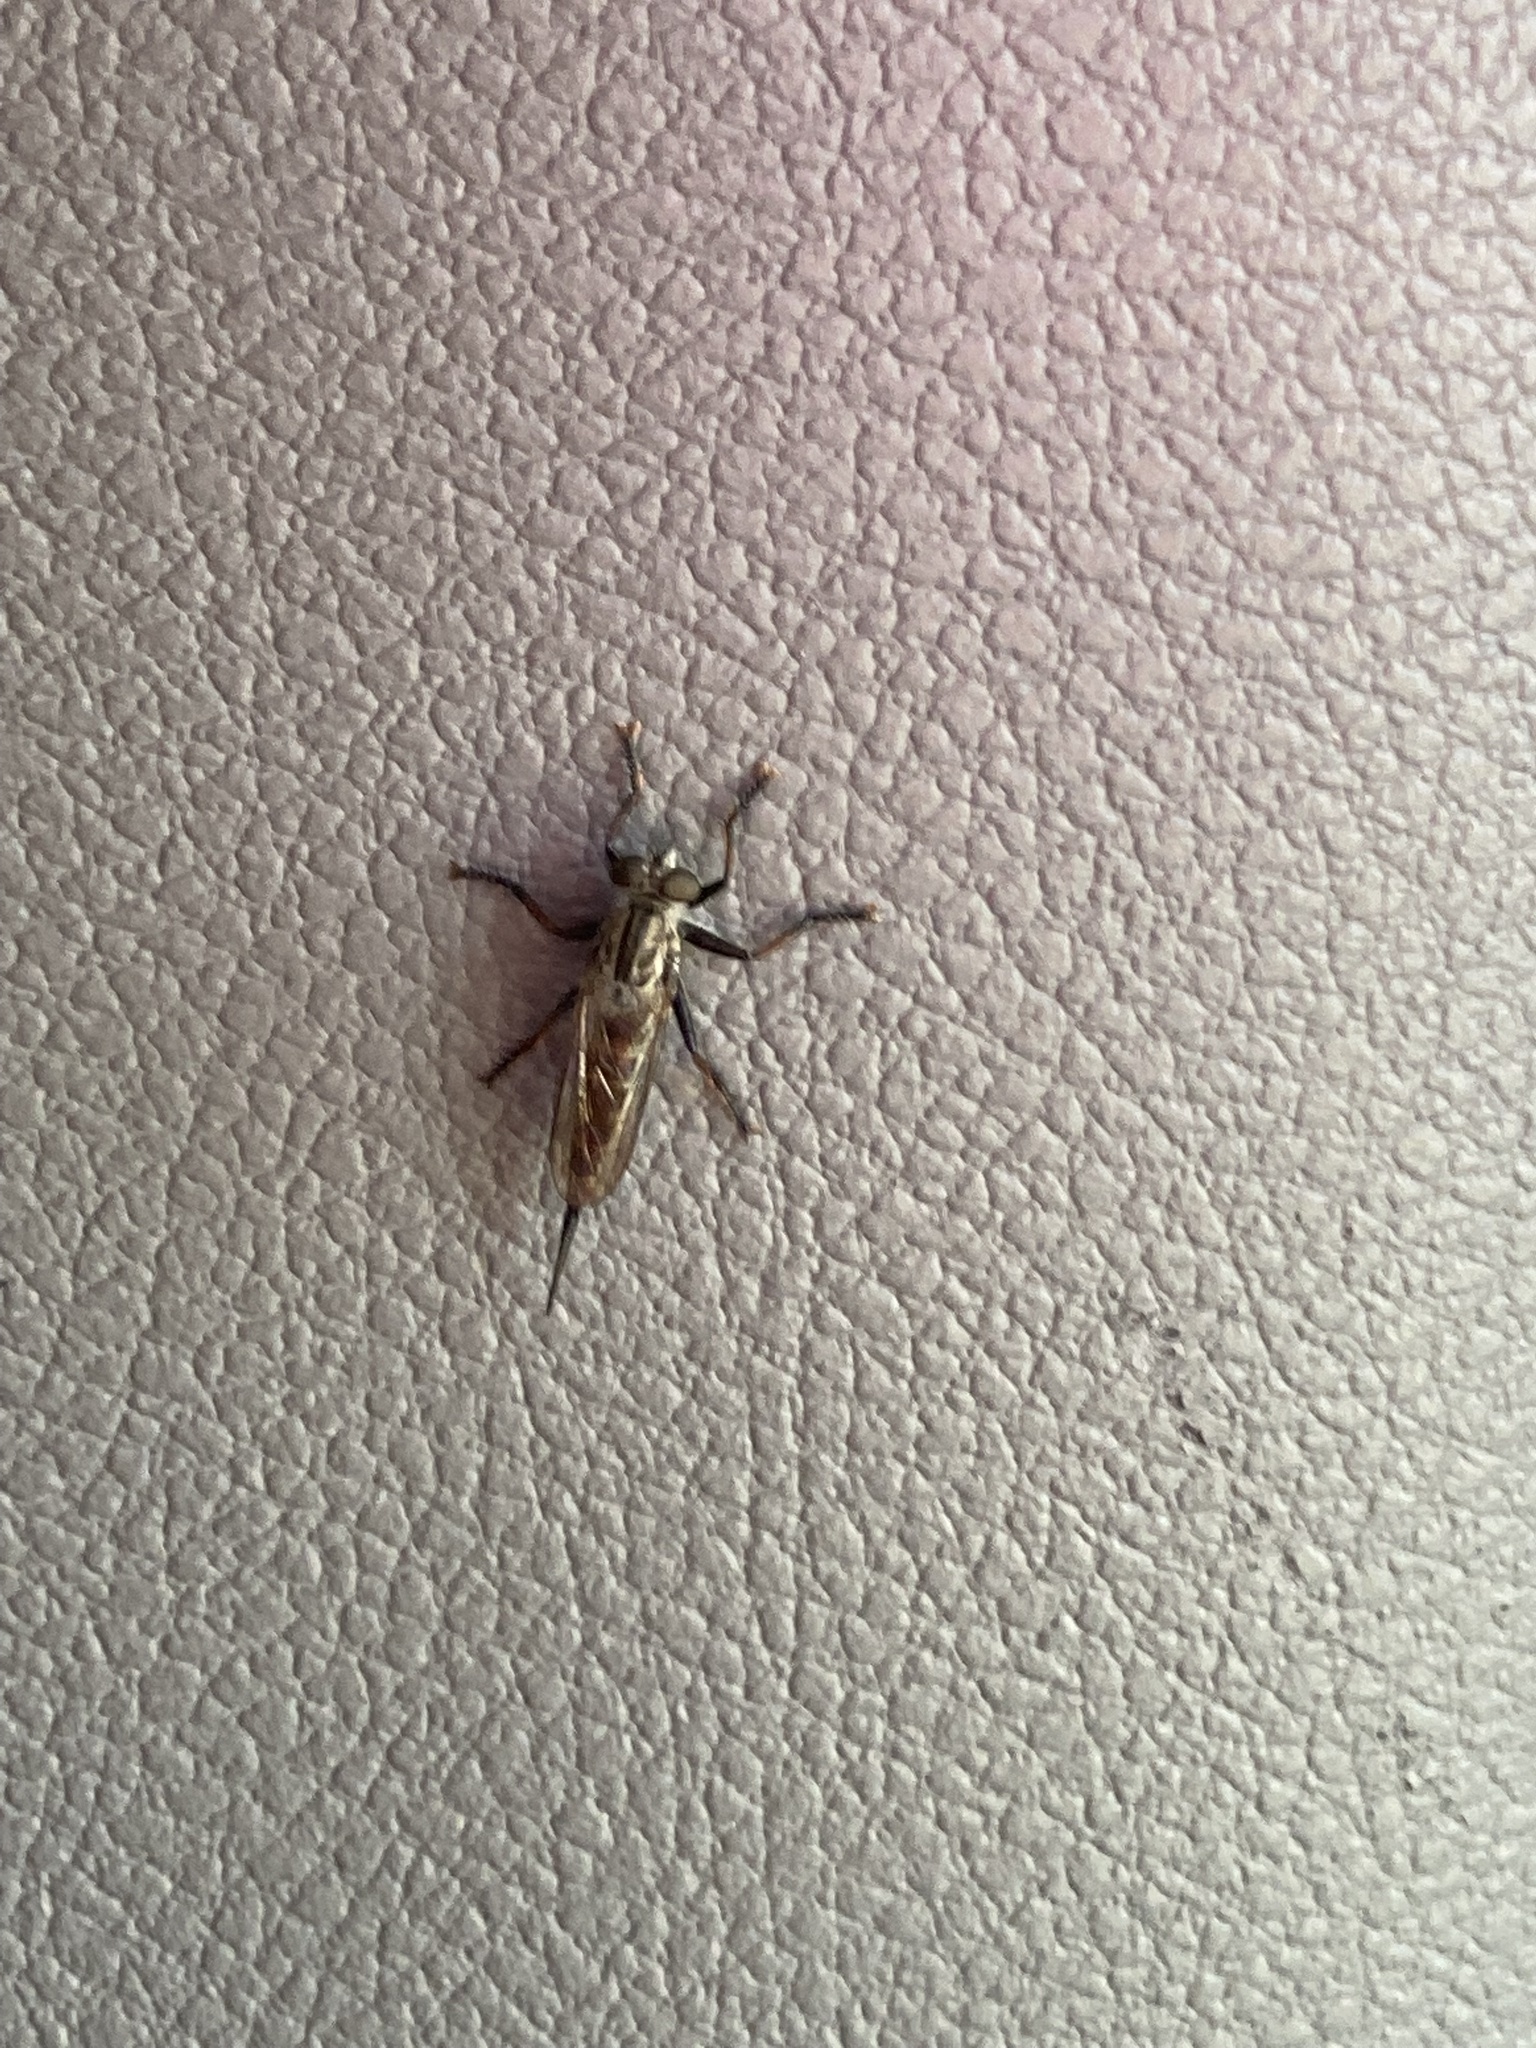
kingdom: Animalia
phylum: Arthropoda
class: Insecta
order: Diptera
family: Asilidae
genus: Efferia
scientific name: Efferia aestuans
